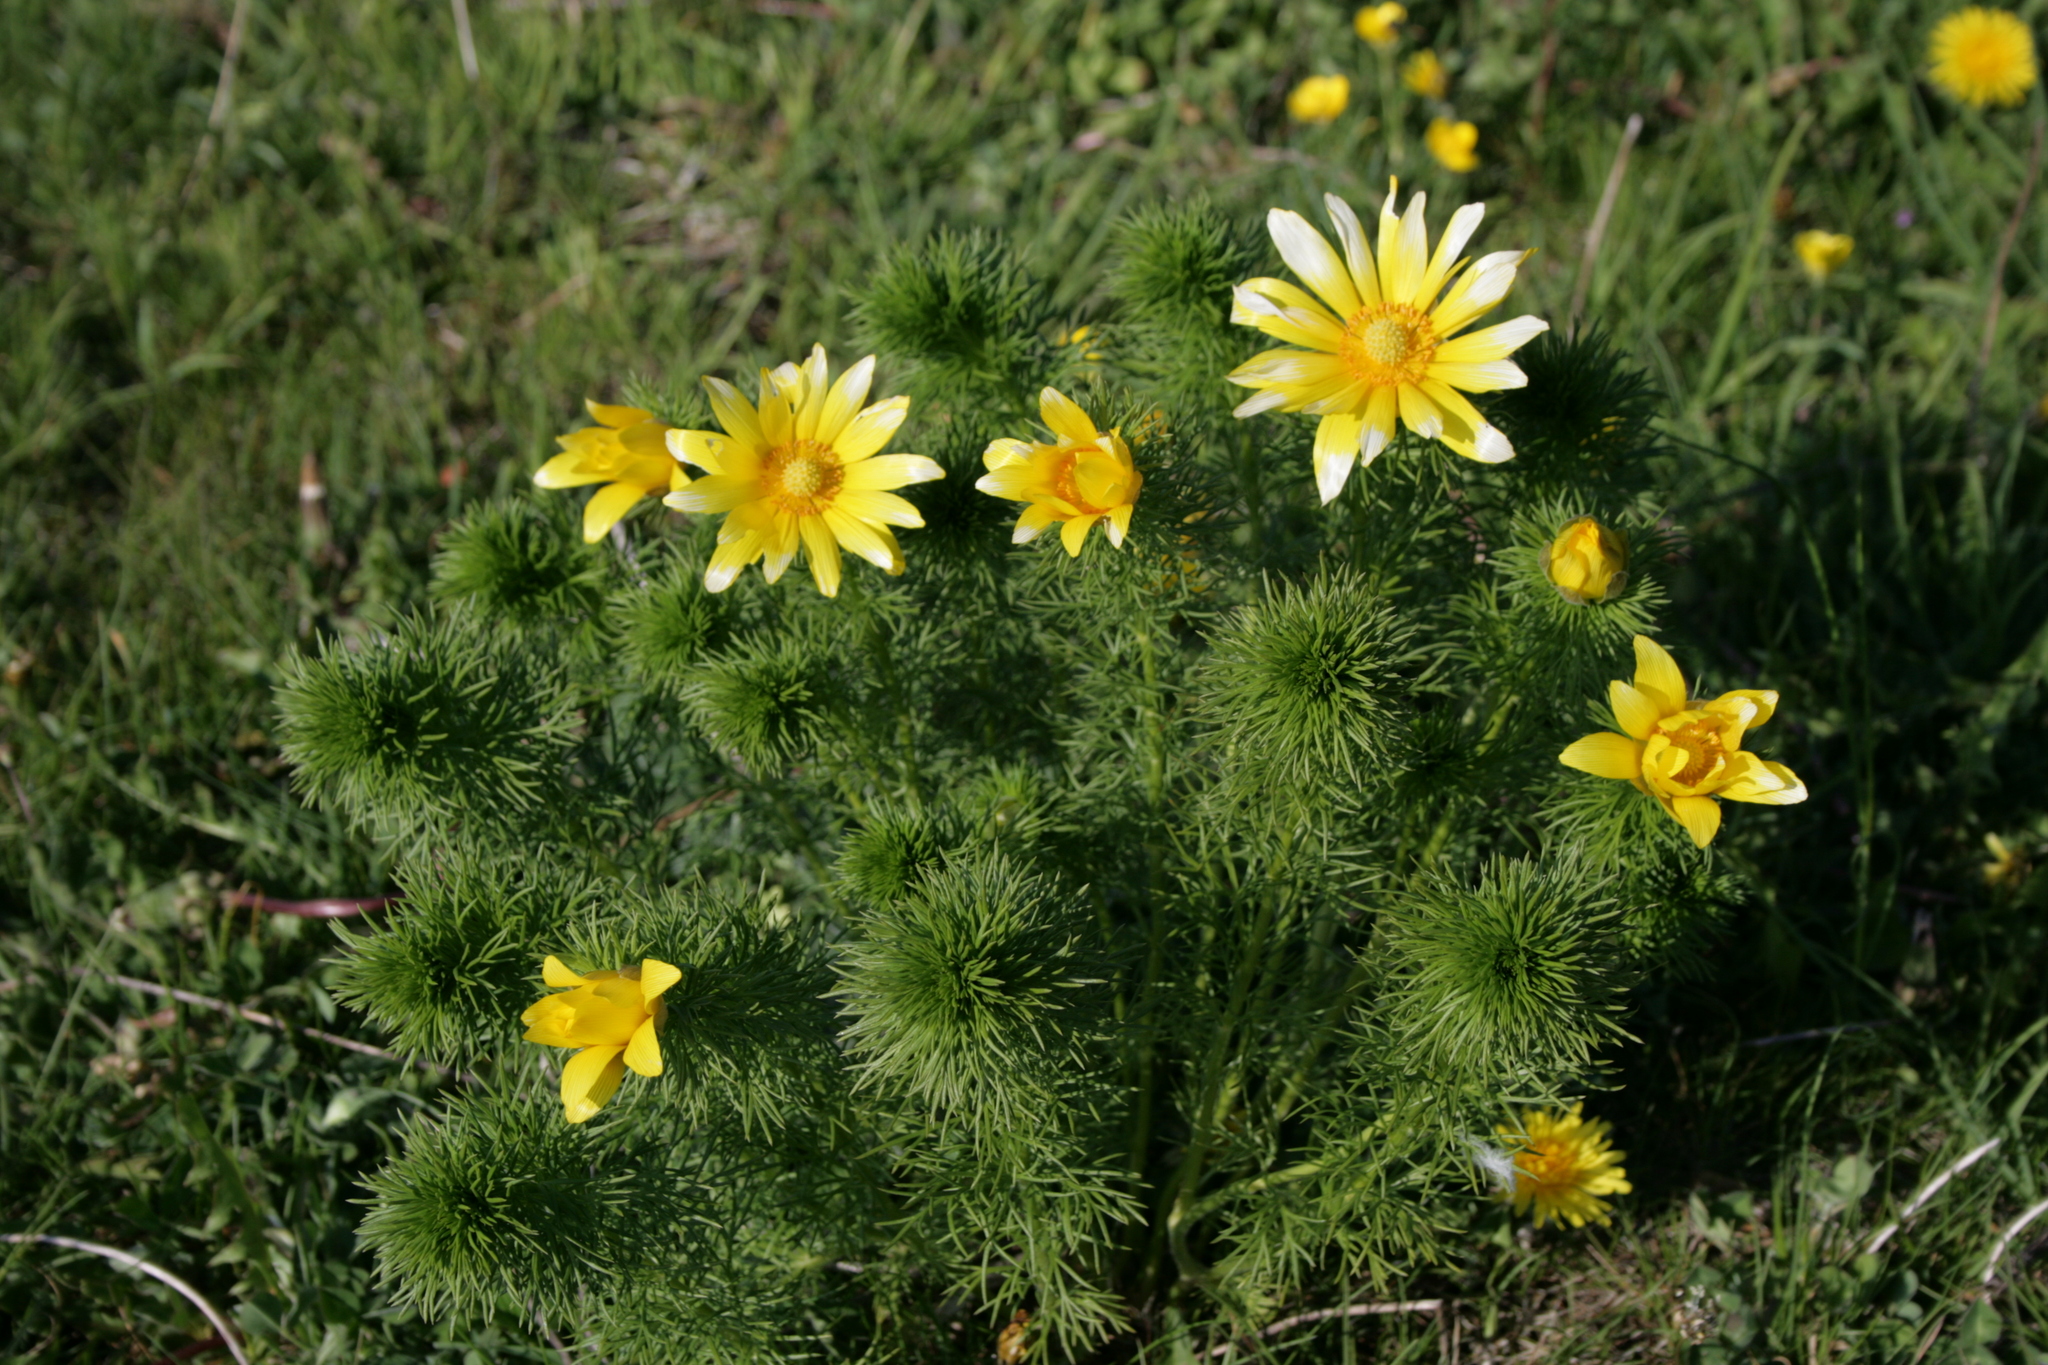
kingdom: Plantae
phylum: Tracheophyta
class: Magnoliopsida
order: Ranunculales
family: Ranunculaceae
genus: Adonis
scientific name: Adonis vernalis
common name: Yellow pheasants-eye
